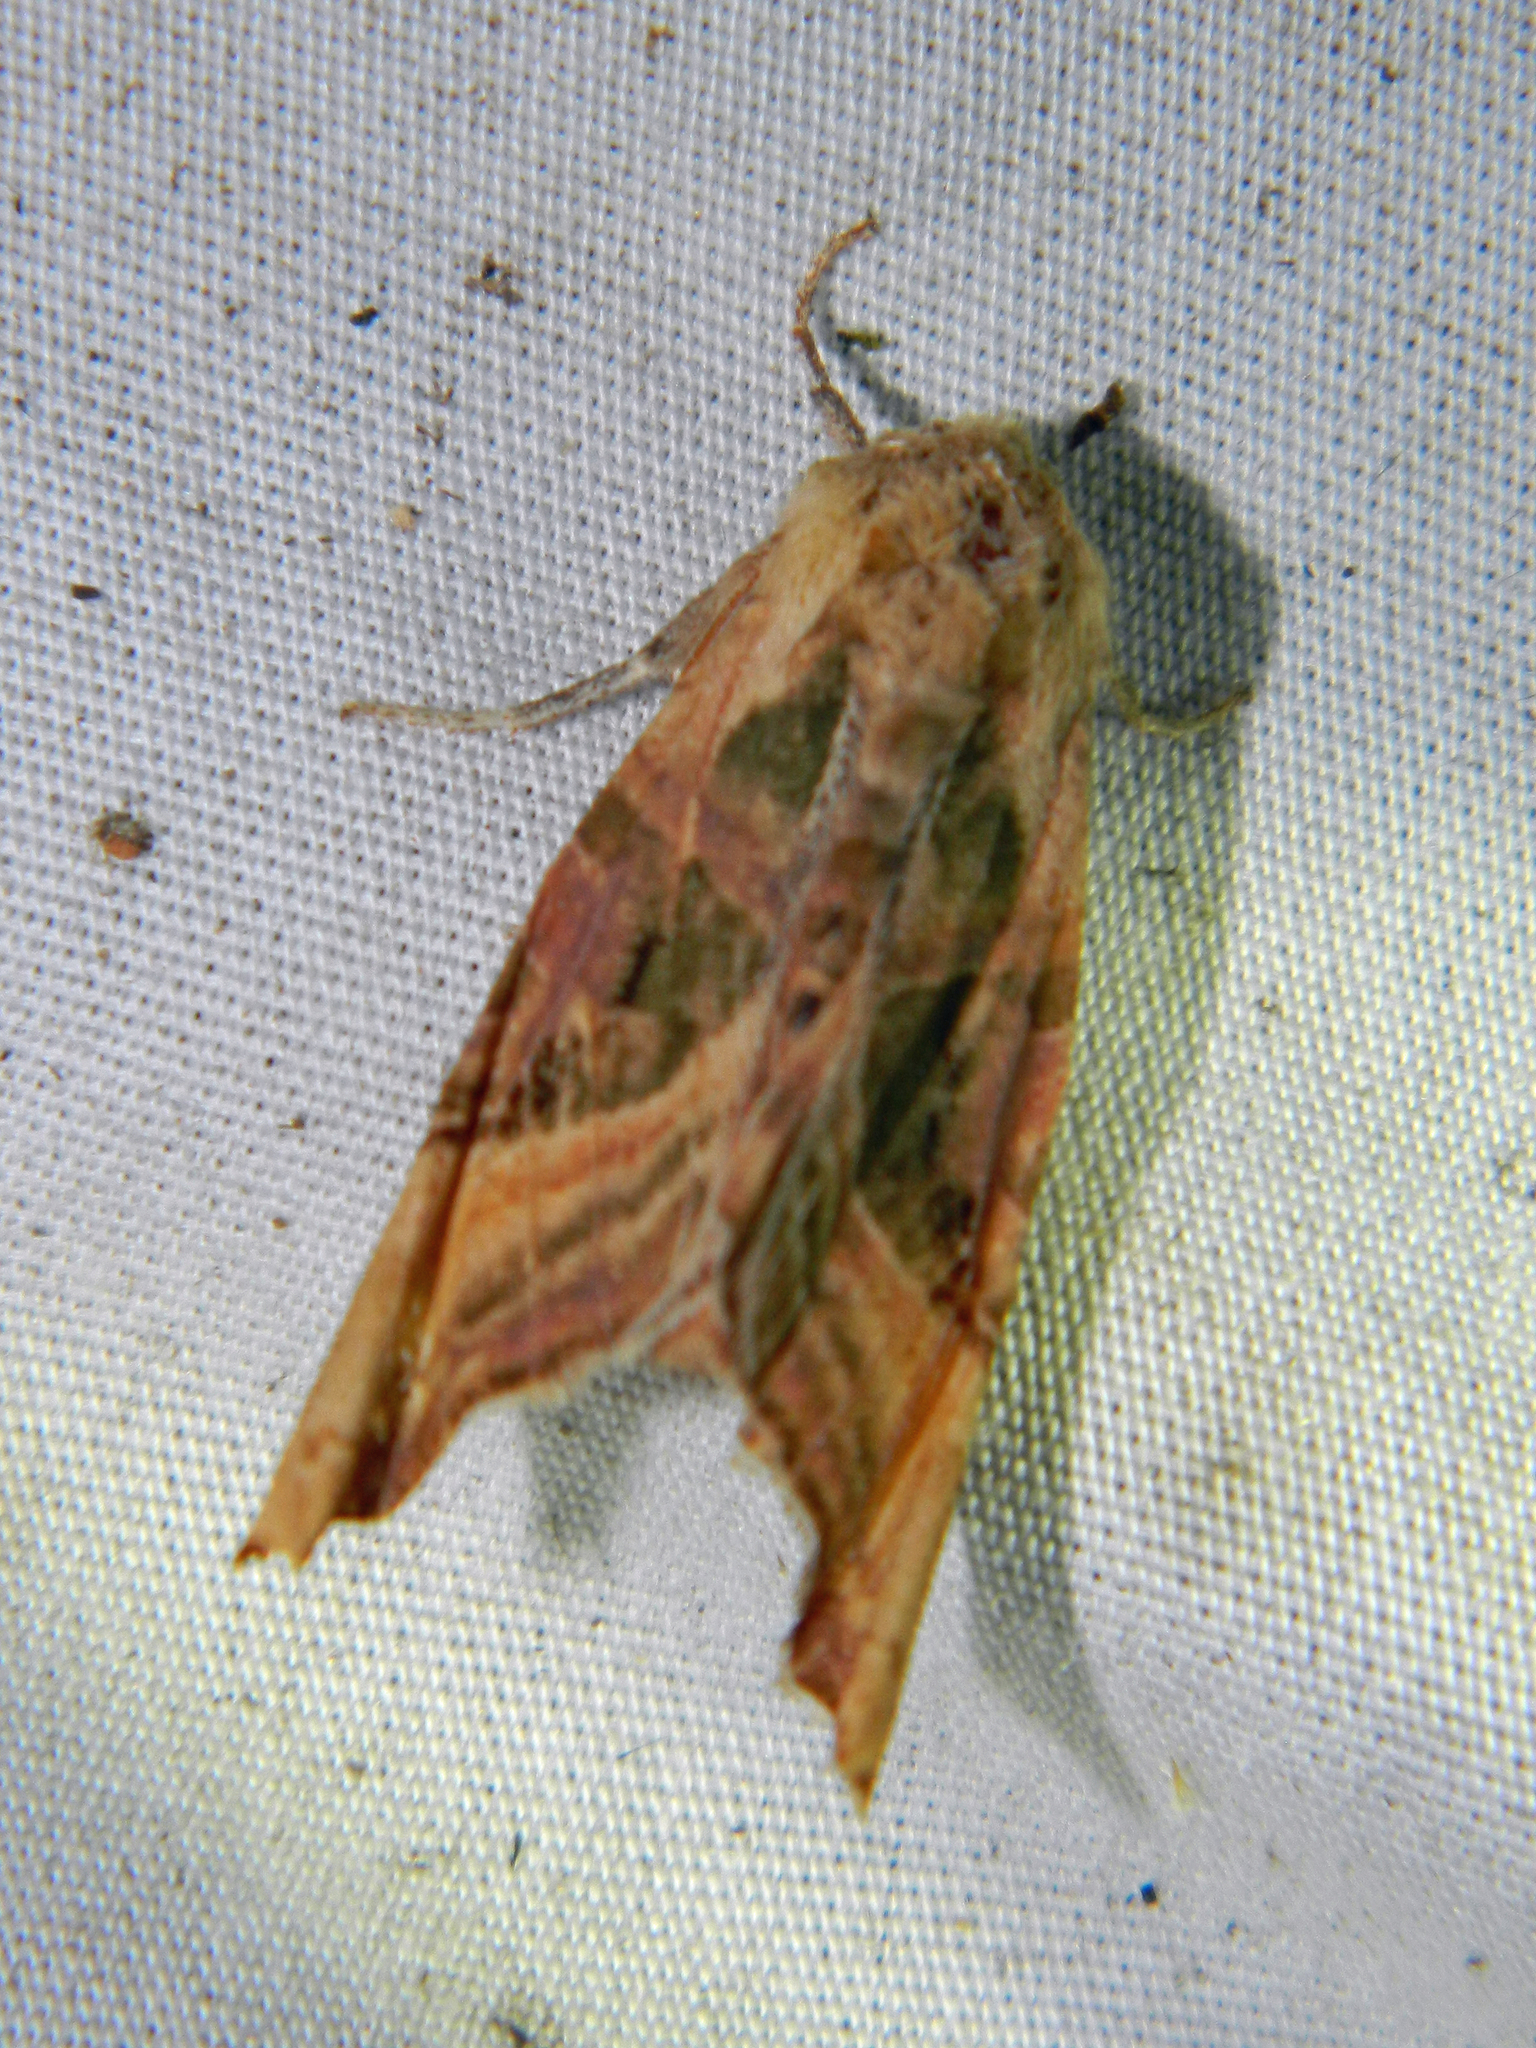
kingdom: Animalia
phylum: Arthropoda
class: Insecta
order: Lepidoptera
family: Noctuidae
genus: Phlogophora
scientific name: Phlogophora iris
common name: Olive angle shades
